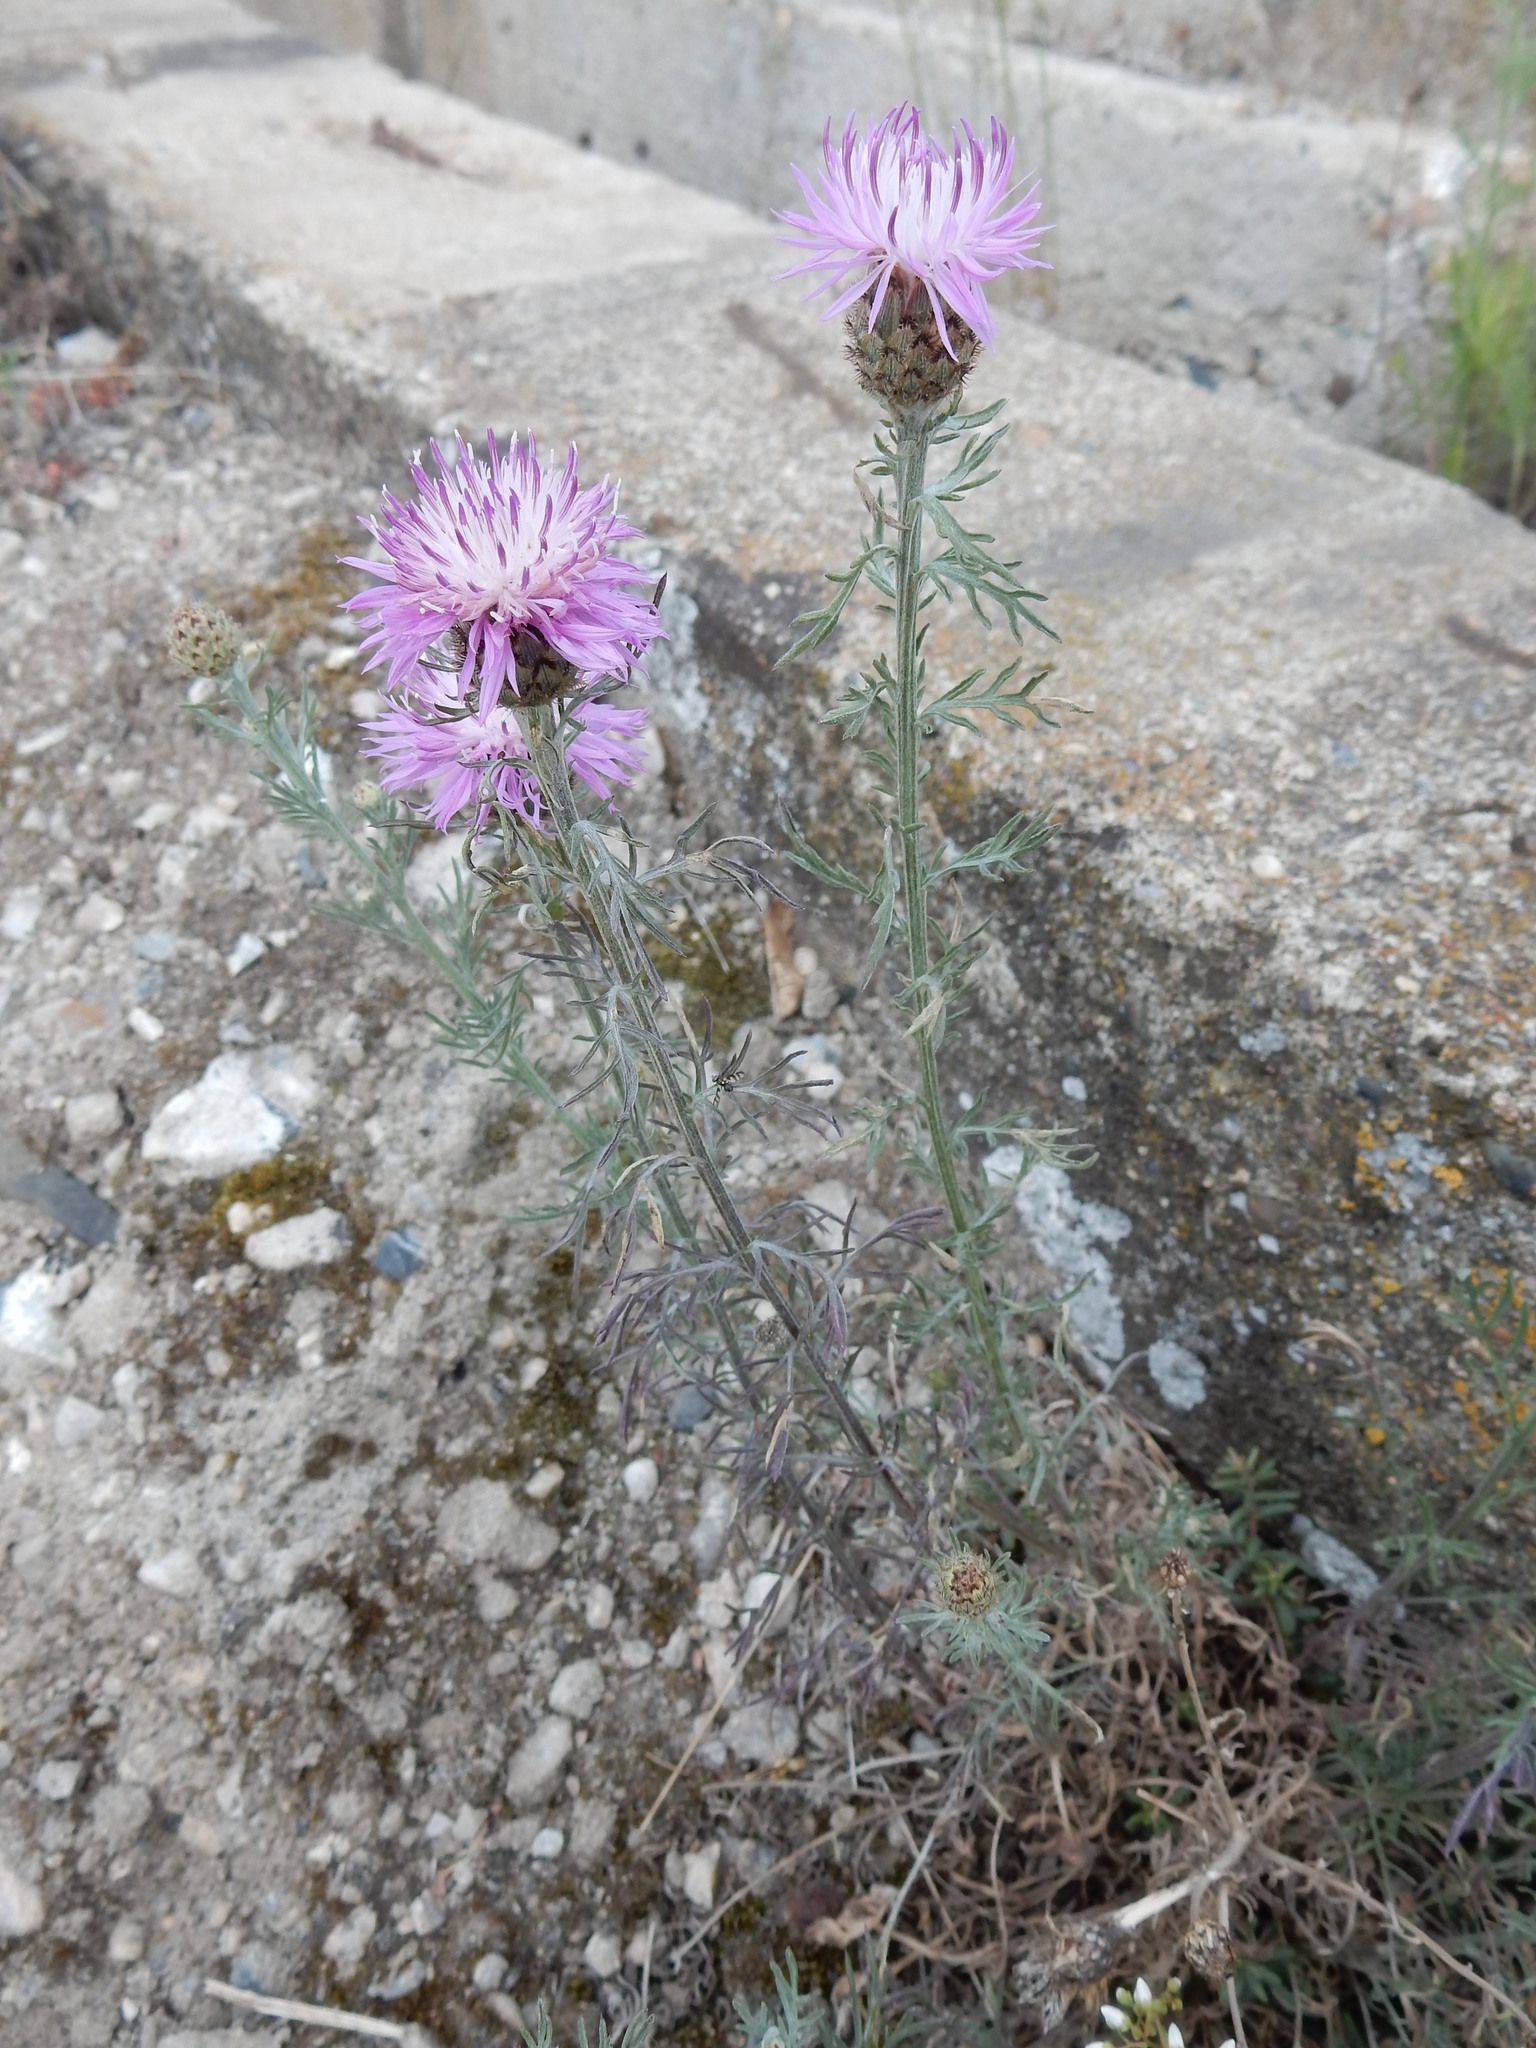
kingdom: Plantae
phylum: Tracheophyta
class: Magnoliopsida
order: Asterales
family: Asteraceae
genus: Centaurea
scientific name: Centaurea stoebe
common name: Spotted knapweed
